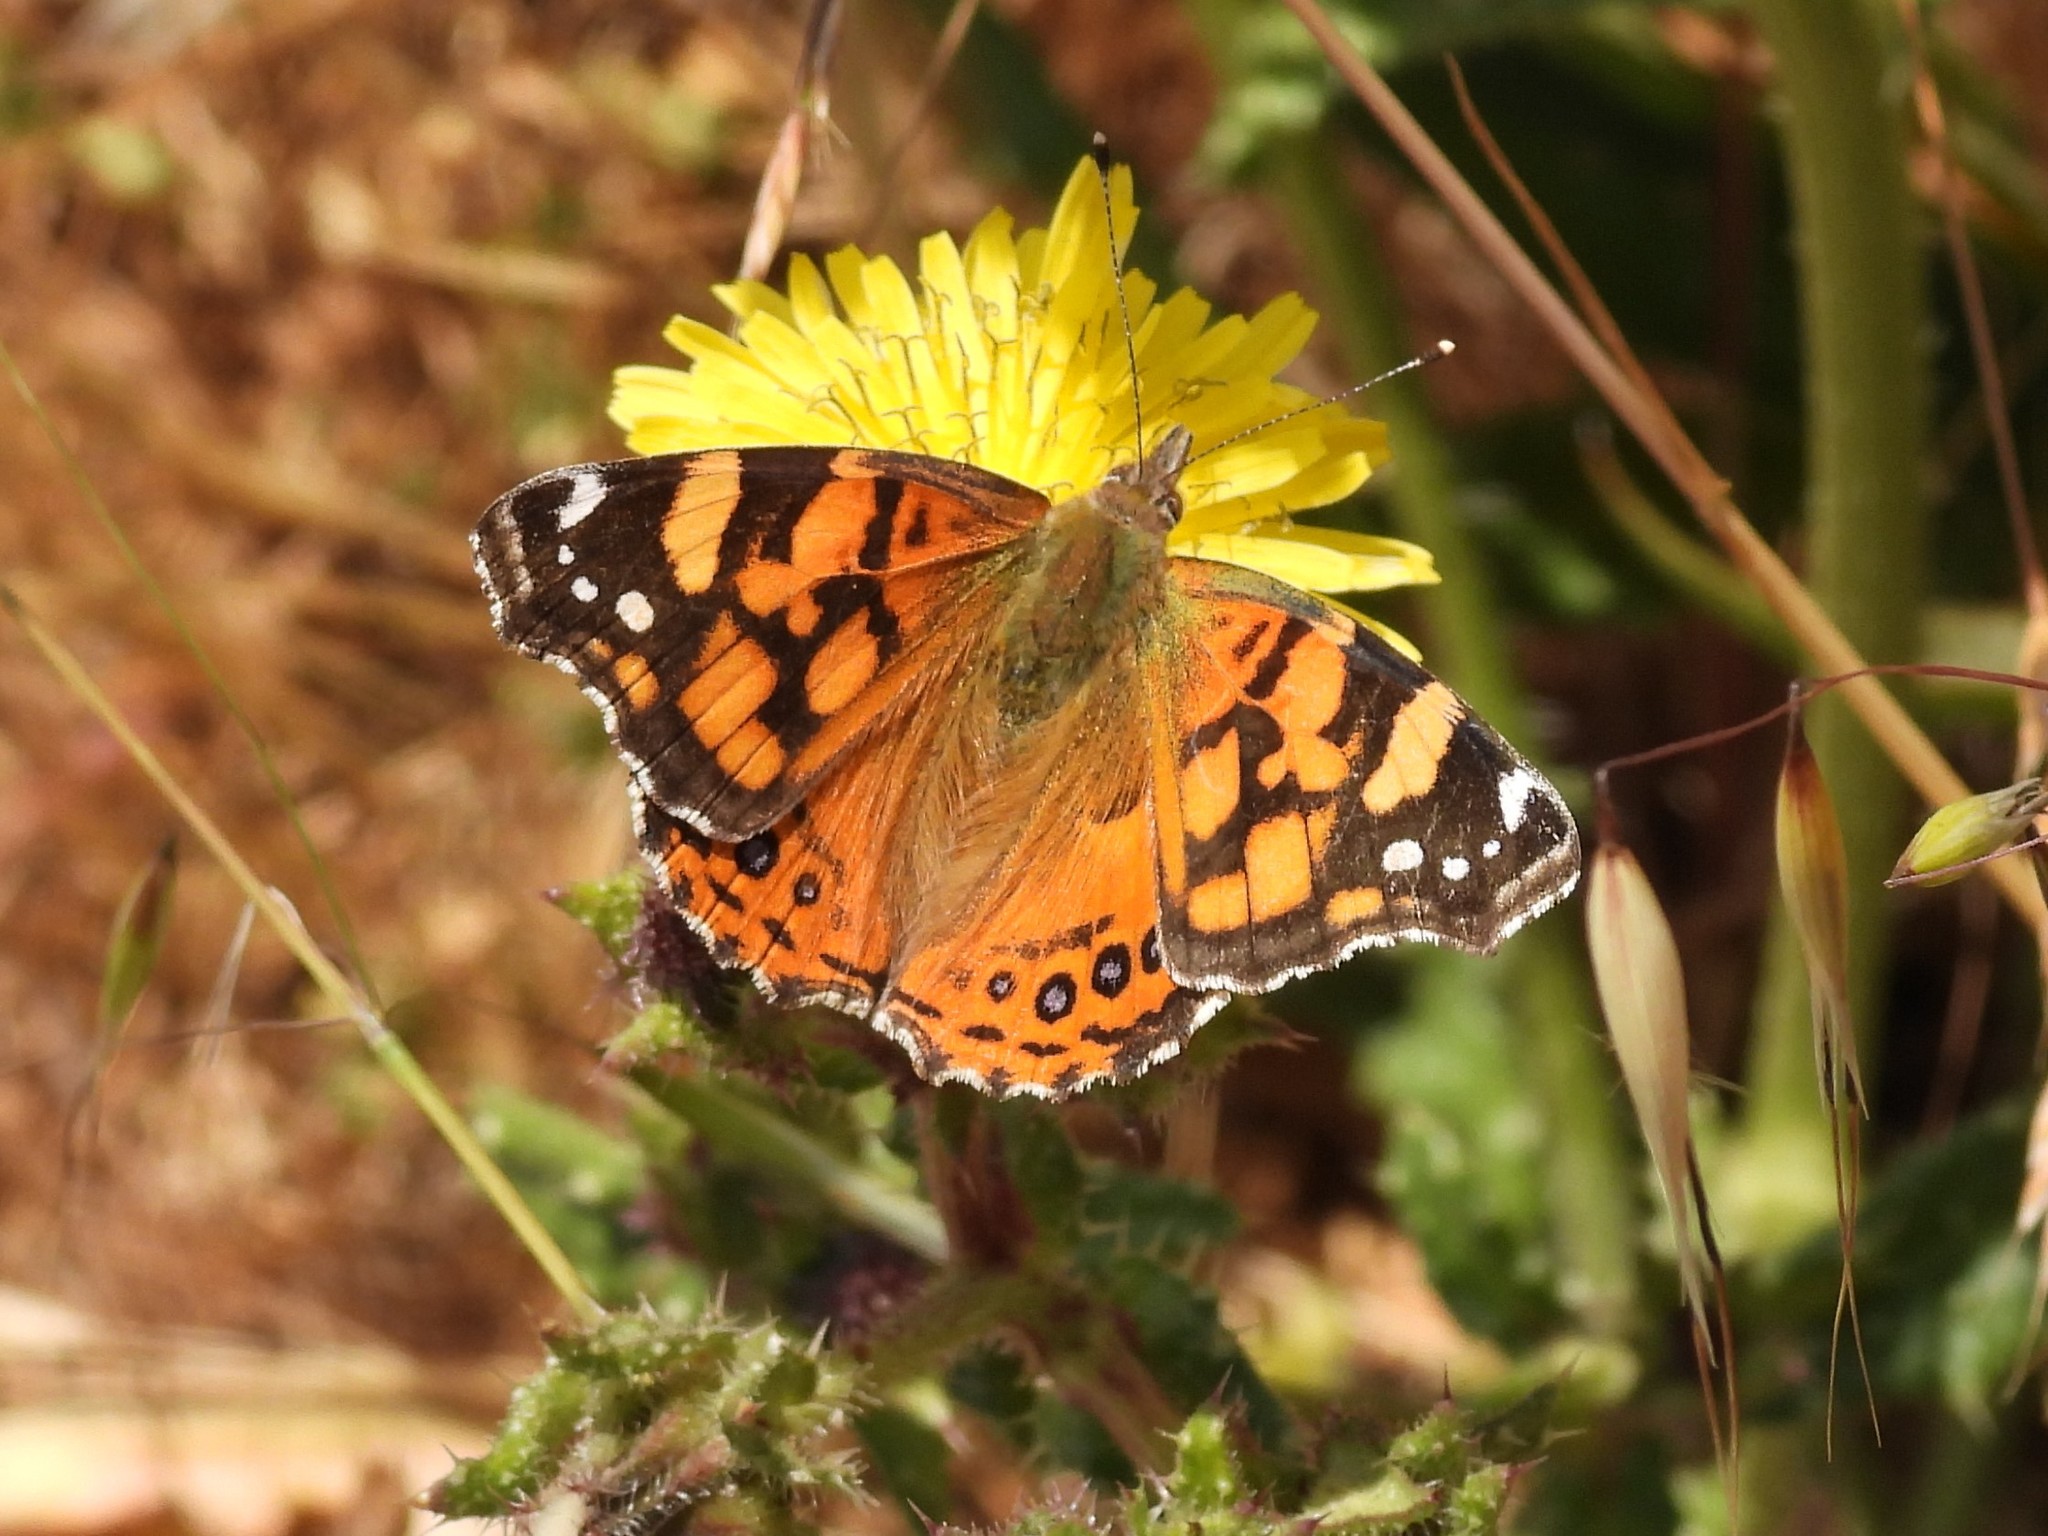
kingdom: Animalia
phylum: Arthropoda
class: Insecta
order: Lepidoptera
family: Nymphalidae
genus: Vanessa
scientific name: Vanessa annabella
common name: West coast lady
